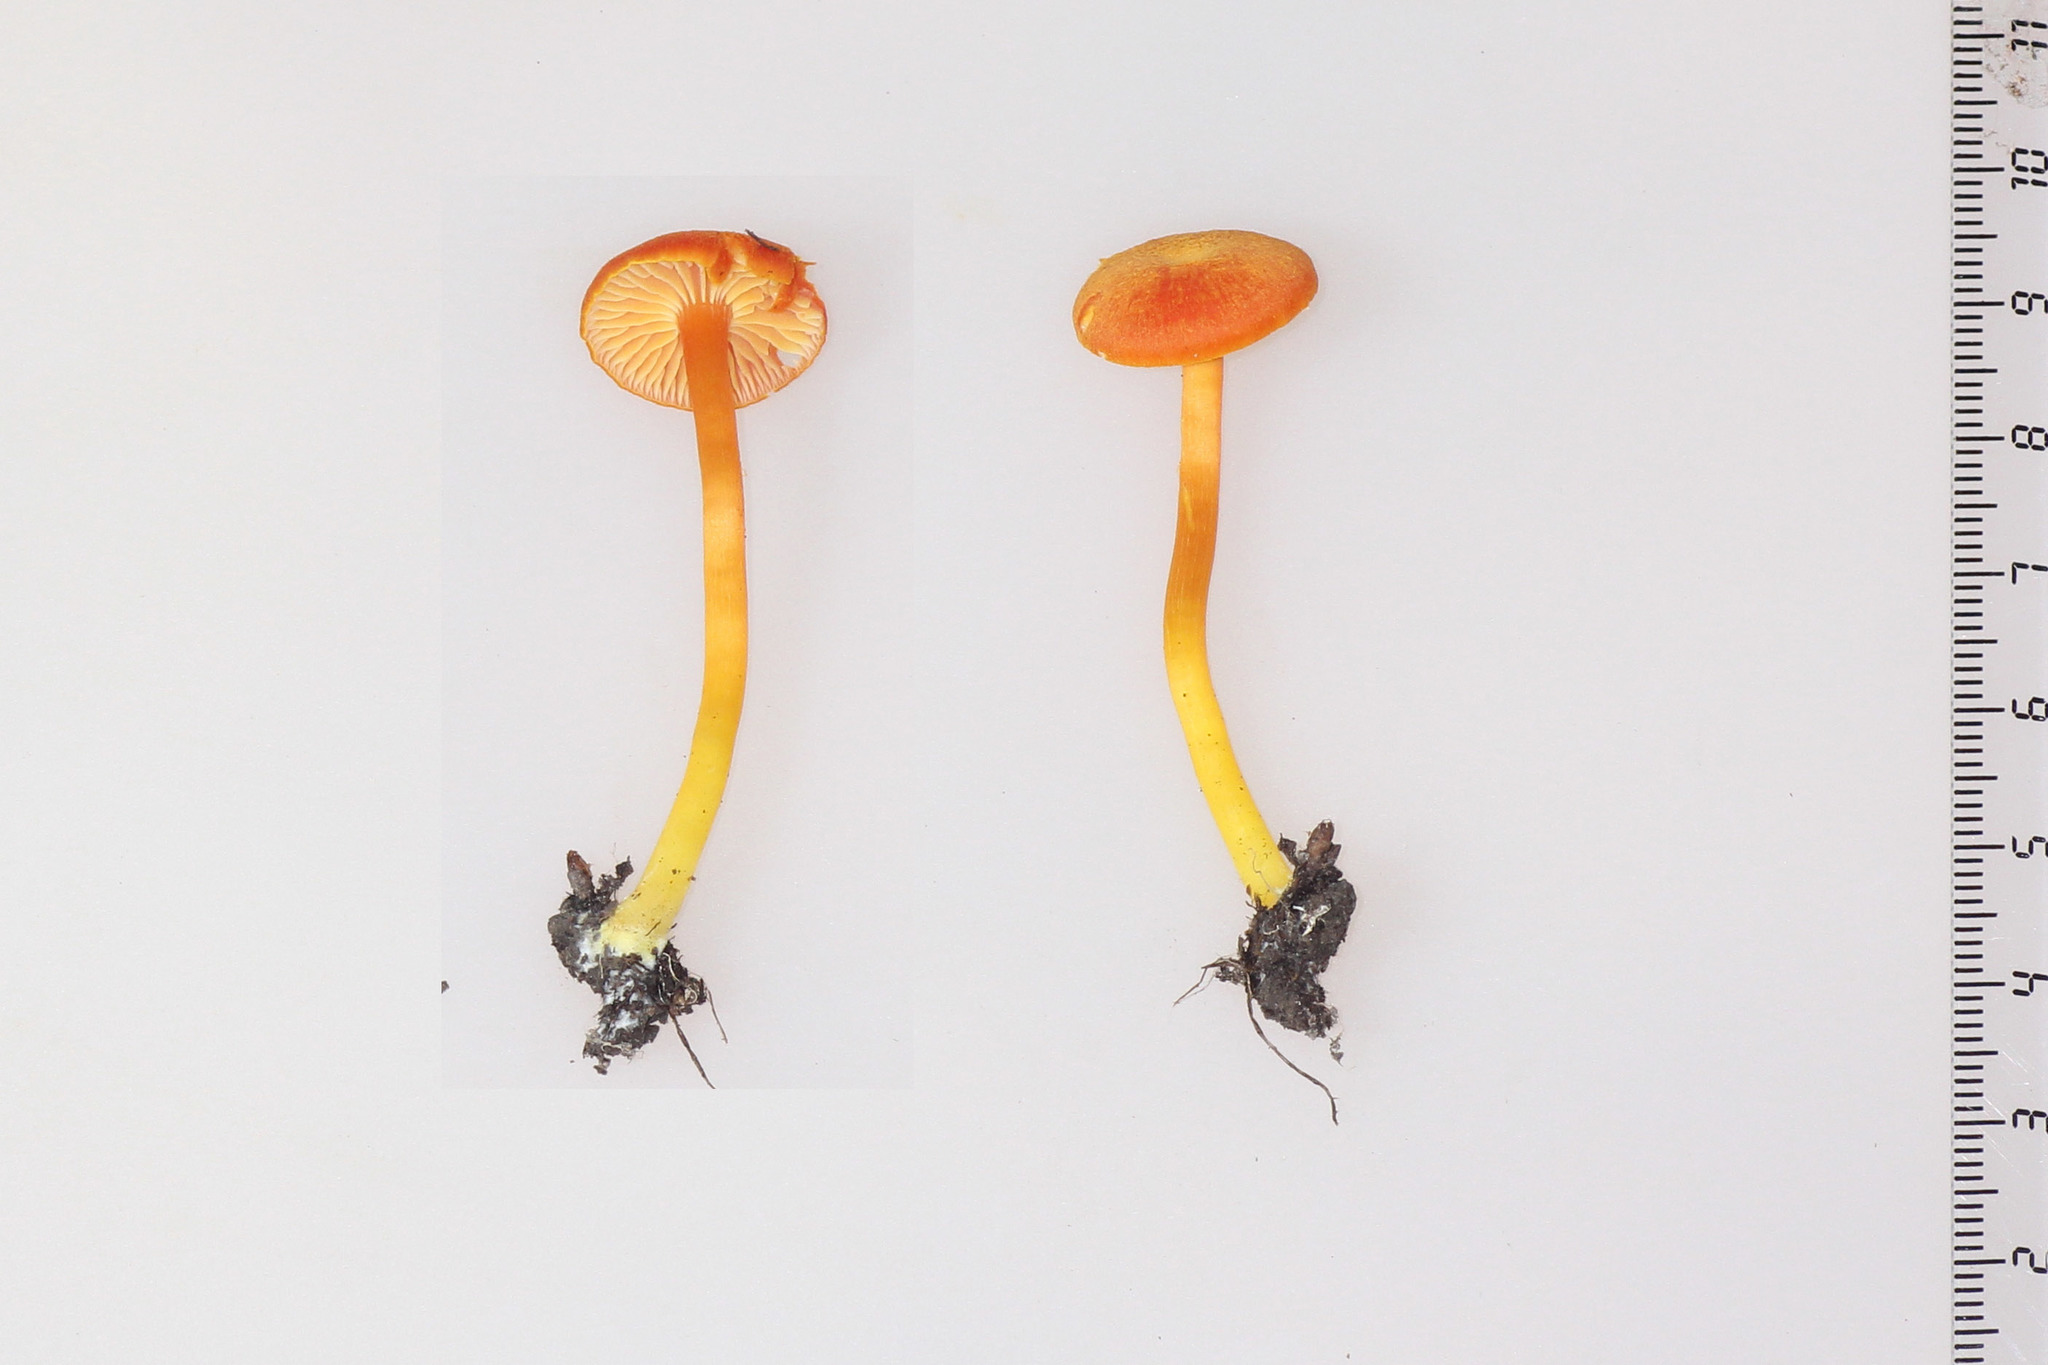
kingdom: Fungi
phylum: Basidiomycota
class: Agaricomycetes
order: Agaricales
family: Hygrophoraceae
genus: Hygrocybe
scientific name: Hygrocybe cantharellus
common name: Goblet waxcap
